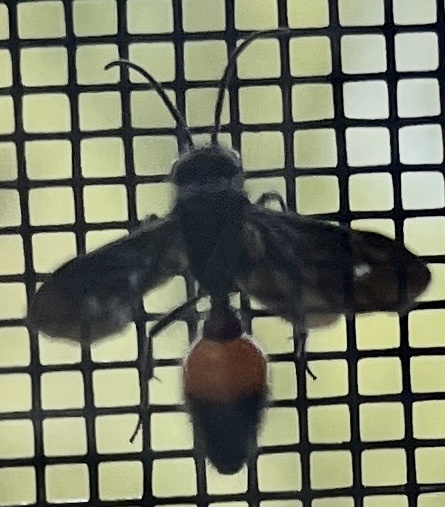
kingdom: Animalia
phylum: Arthropoda
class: Insecta
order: Hymenoptera
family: Mutillidae
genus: Sphaeropthalma
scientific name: Sphaeropthalma
